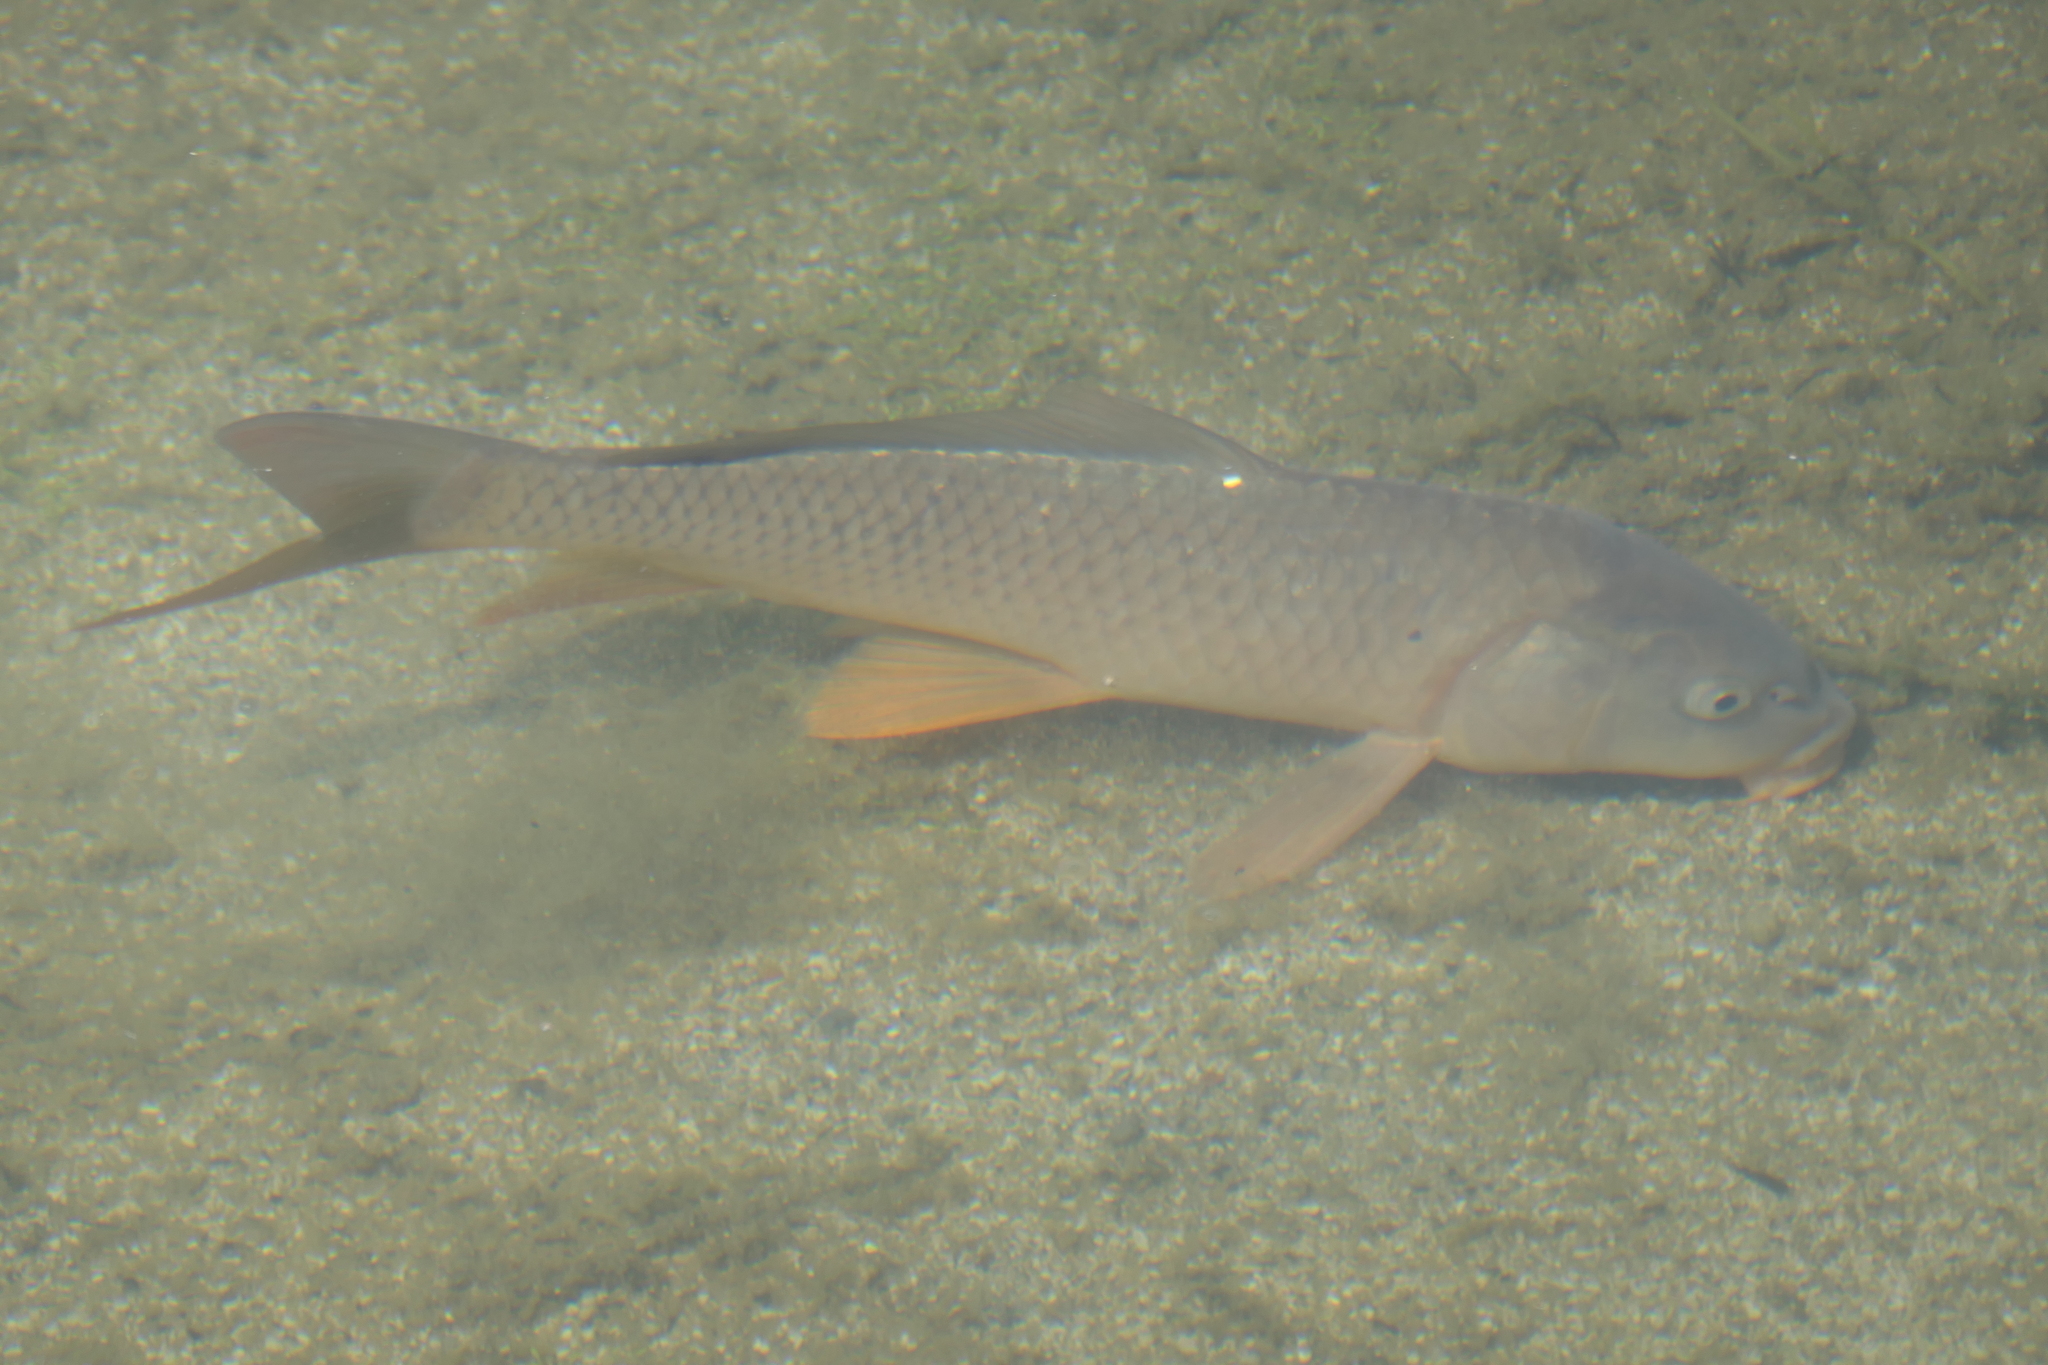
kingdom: Animalia
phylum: Chordata
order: Cypriniformes
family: Cyprinidae
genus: Cyprinus
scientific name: Cyprinus carpio
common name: Common carp
